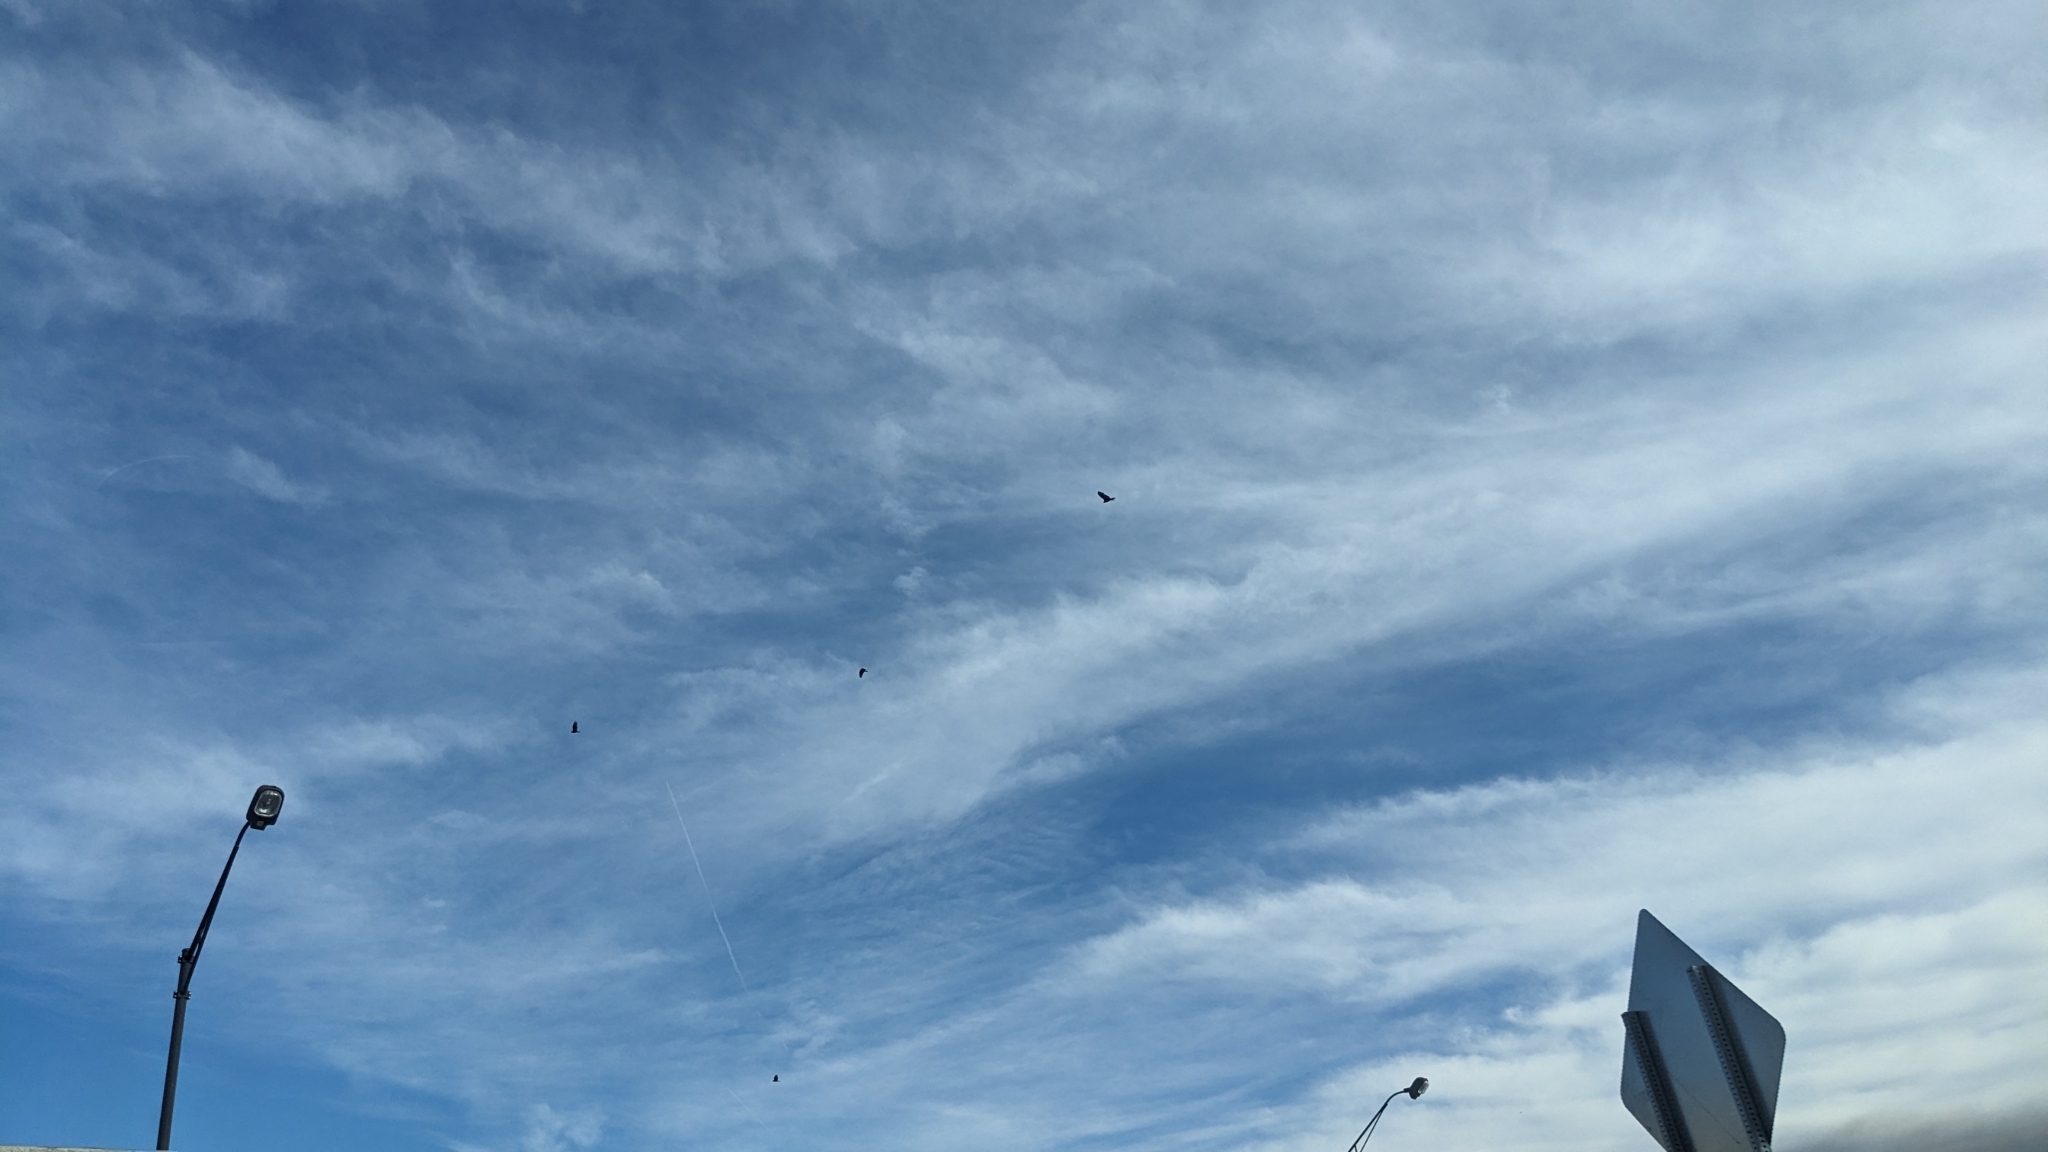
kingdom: Animalia
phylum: Chordata
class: Aves
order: Accipitriformes
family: Cathartidae
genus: Cathartes
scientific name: Cathartes aura
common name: Turkey vulture
